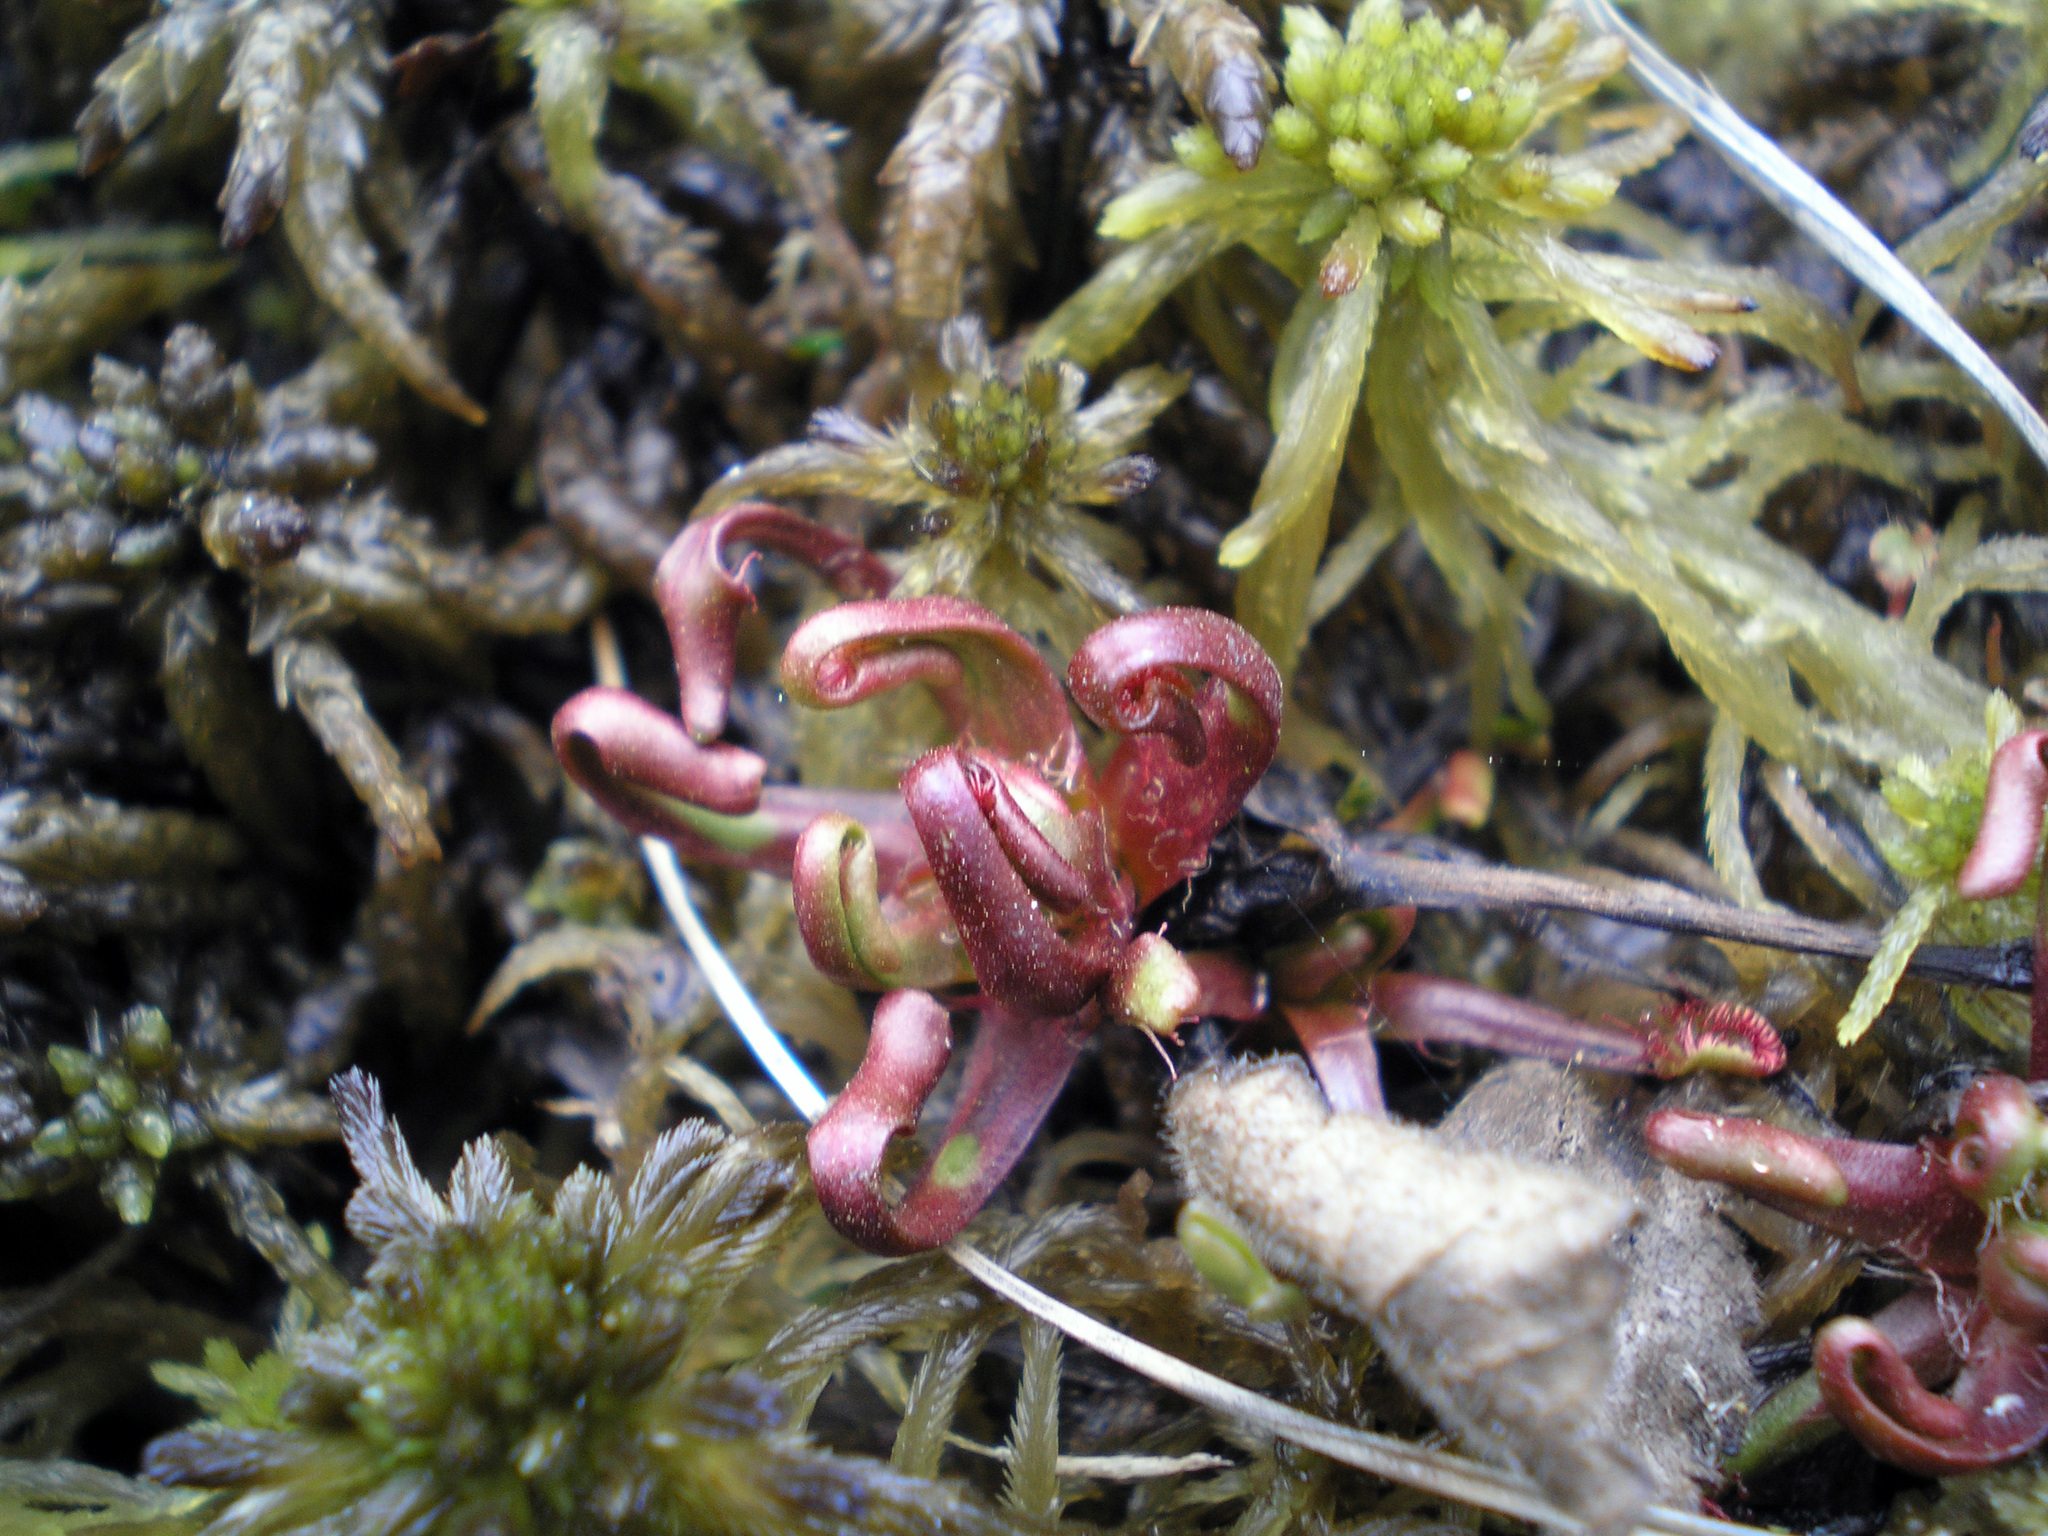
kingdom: Plantae
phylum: Tracheophyta
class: Magnoliopsida
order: Caryophyllales
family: Droseraceae
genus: Drosera
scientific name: Drosera rotundifolia
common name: Round-leaved sundew
